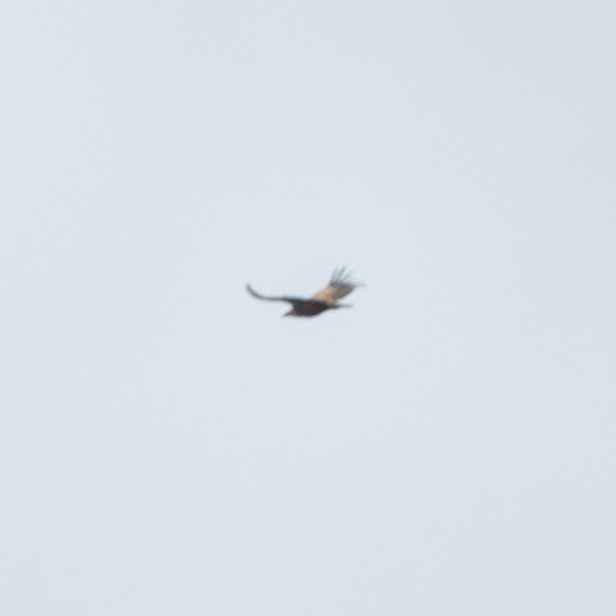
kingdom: Animalia
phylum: Chordata
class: Aves
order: Accipitriformes
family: Accipitridae
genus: Gyps
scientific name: Gyps fulvus
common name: Griffon vulture
